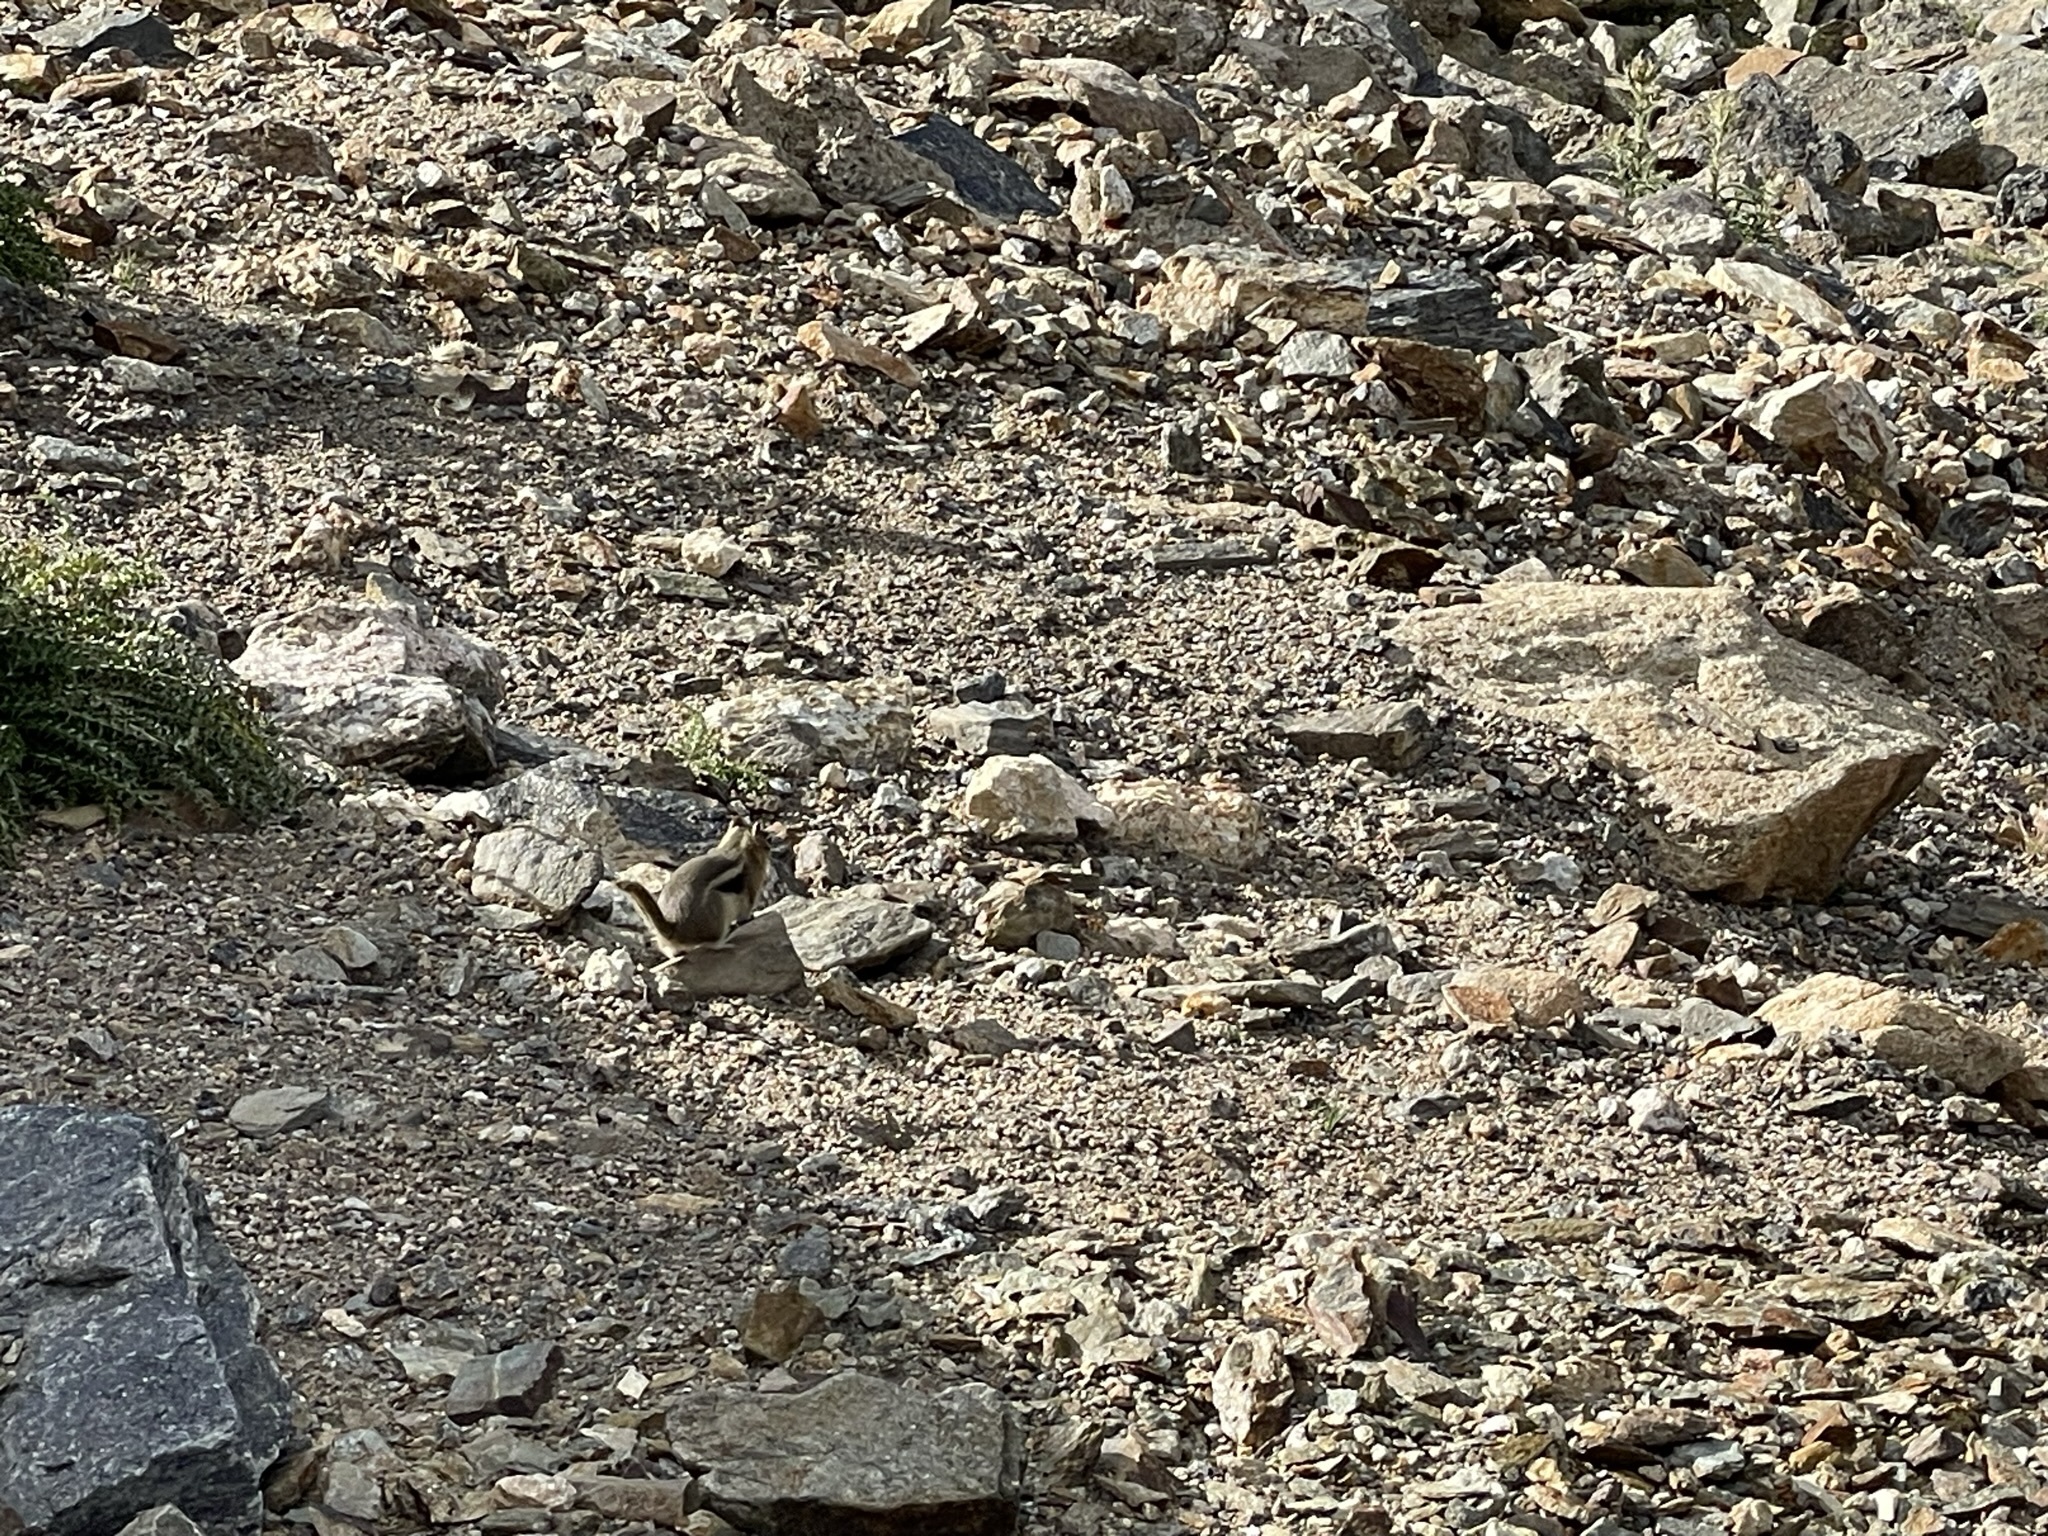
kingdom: Animalia
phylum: Chordata
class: Mammalia
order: Rodentia
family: Sciuridae
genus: Callospermophilus
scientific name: Callospermophilus lateralis
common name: Golden-mantled ground squirrel
